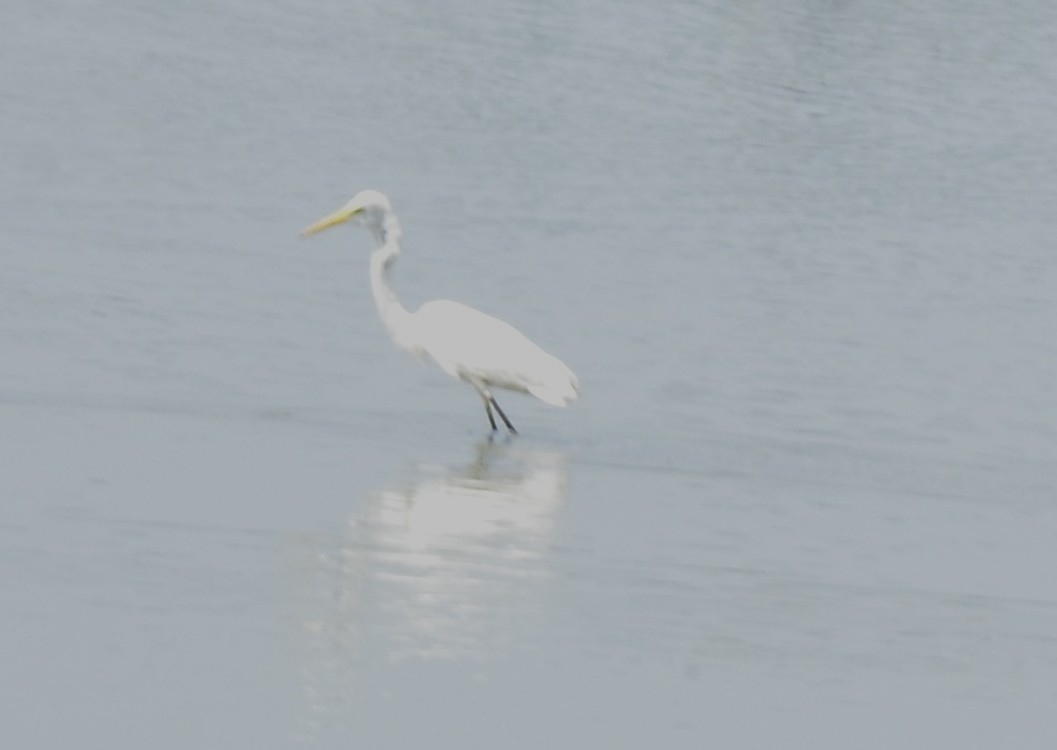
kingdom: Animalia
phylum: Chordata
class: Aves
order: Pelecaniformes
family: Ardeidae
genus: Ardea
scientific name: Ardea alba
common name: Great egret
